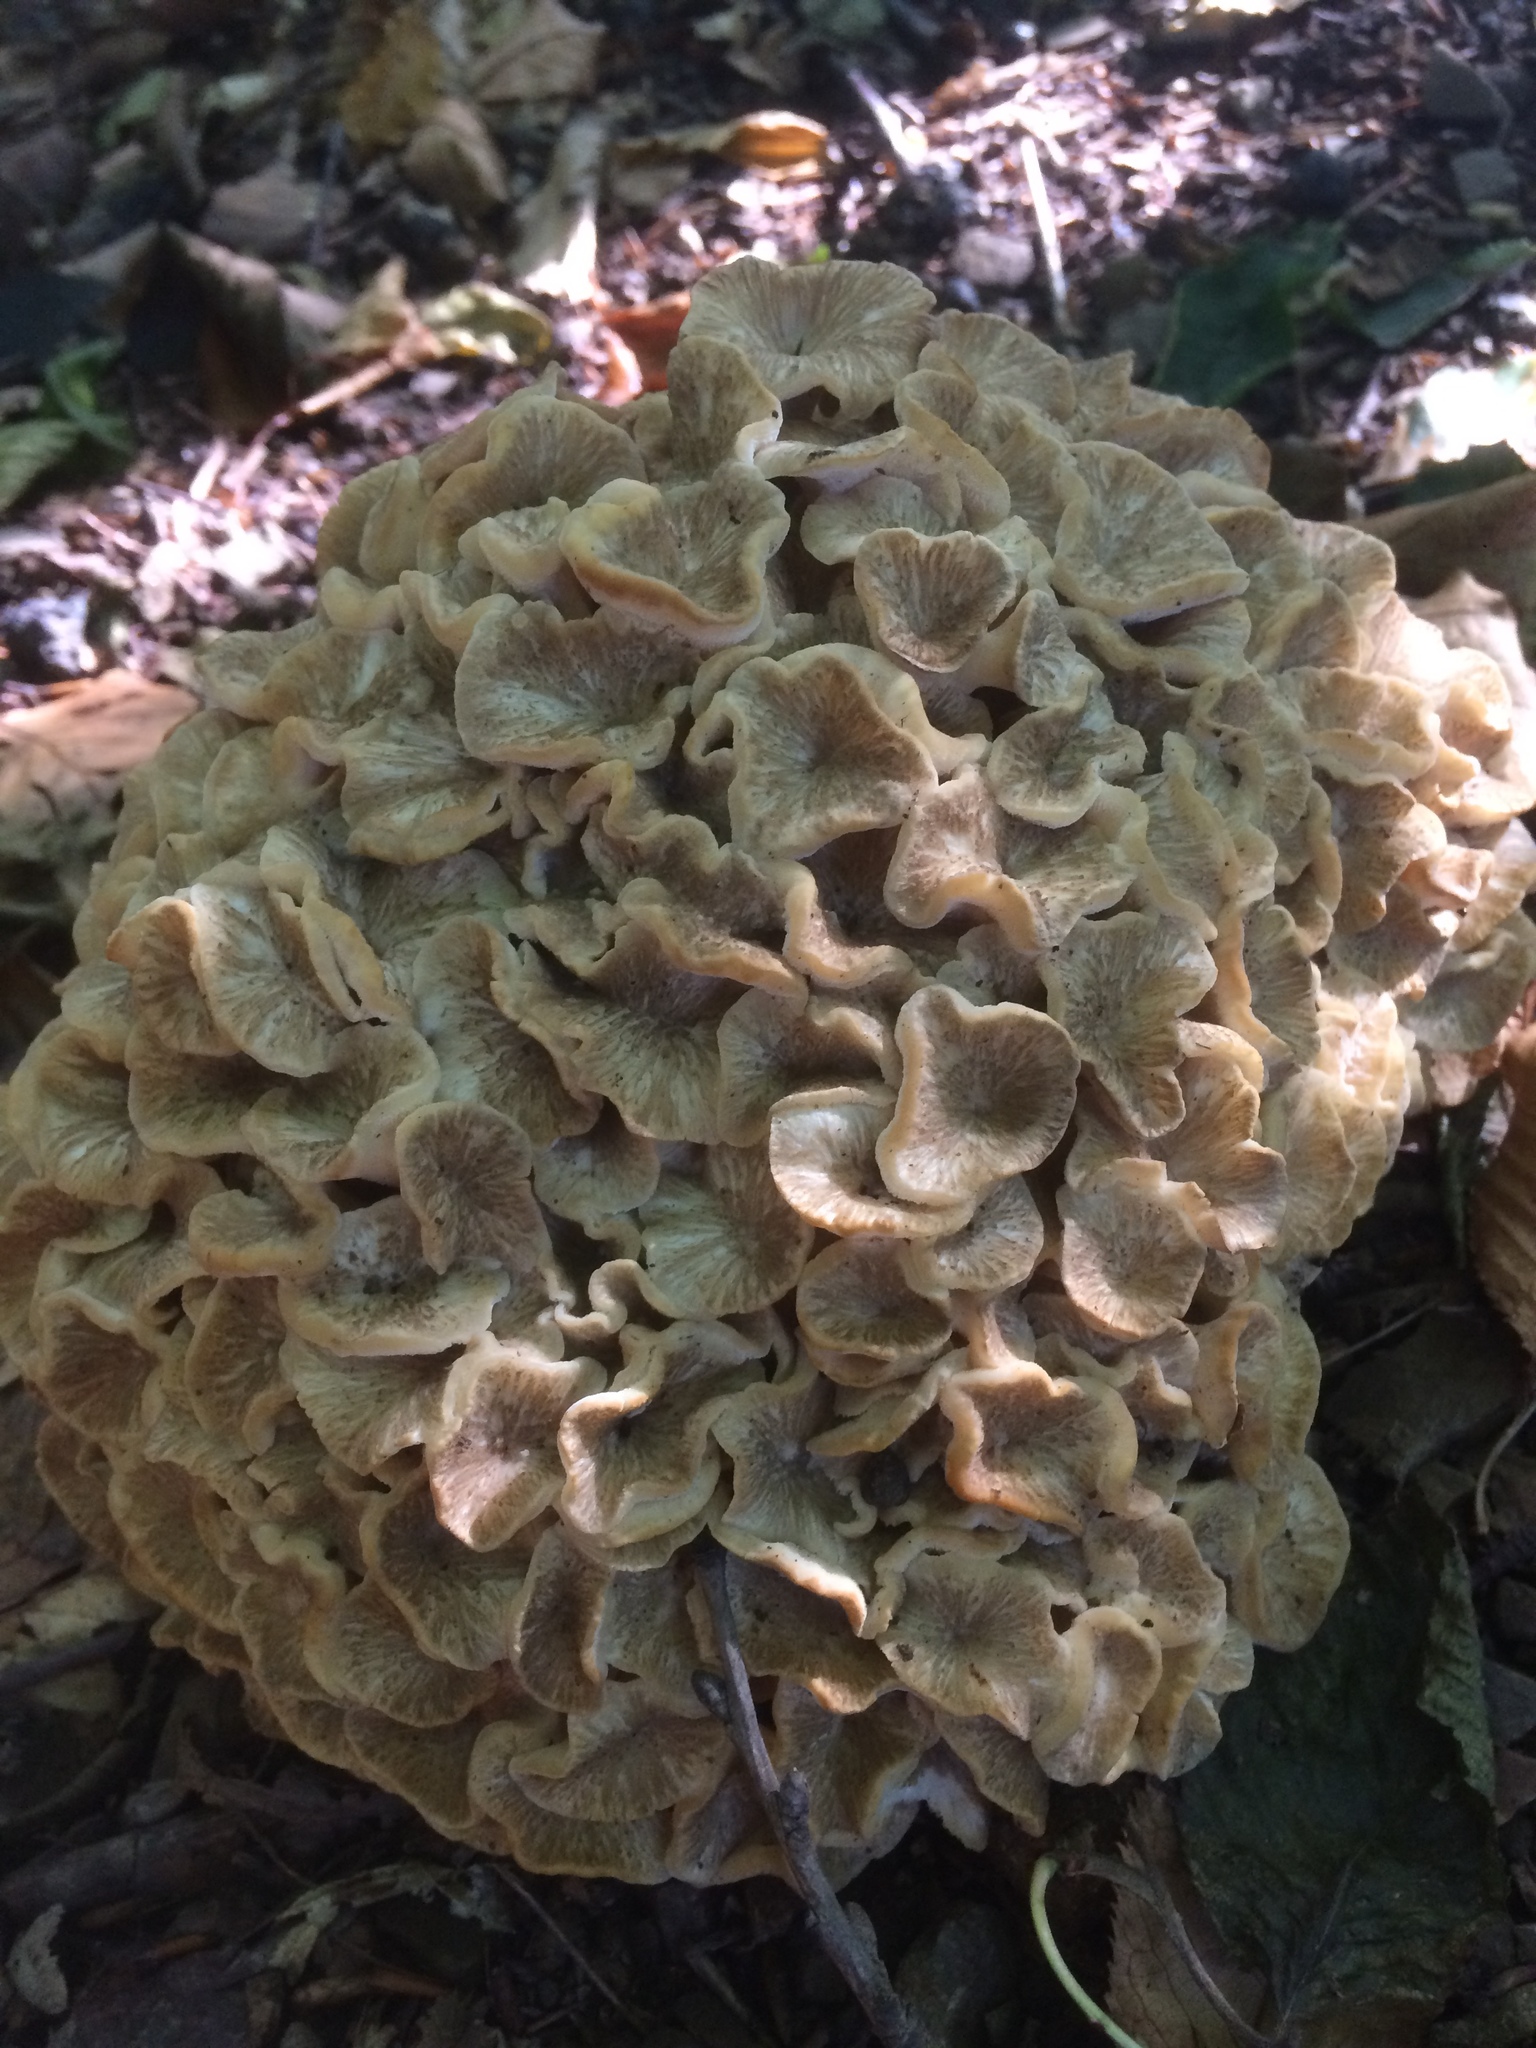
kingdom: Fungi
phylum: Basidiomycota
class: Agaricomycetes
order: Polyporales
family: Polyporaceae
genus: Polyporus
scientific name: Polyporus umbellatus
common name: Umbrella polypore
